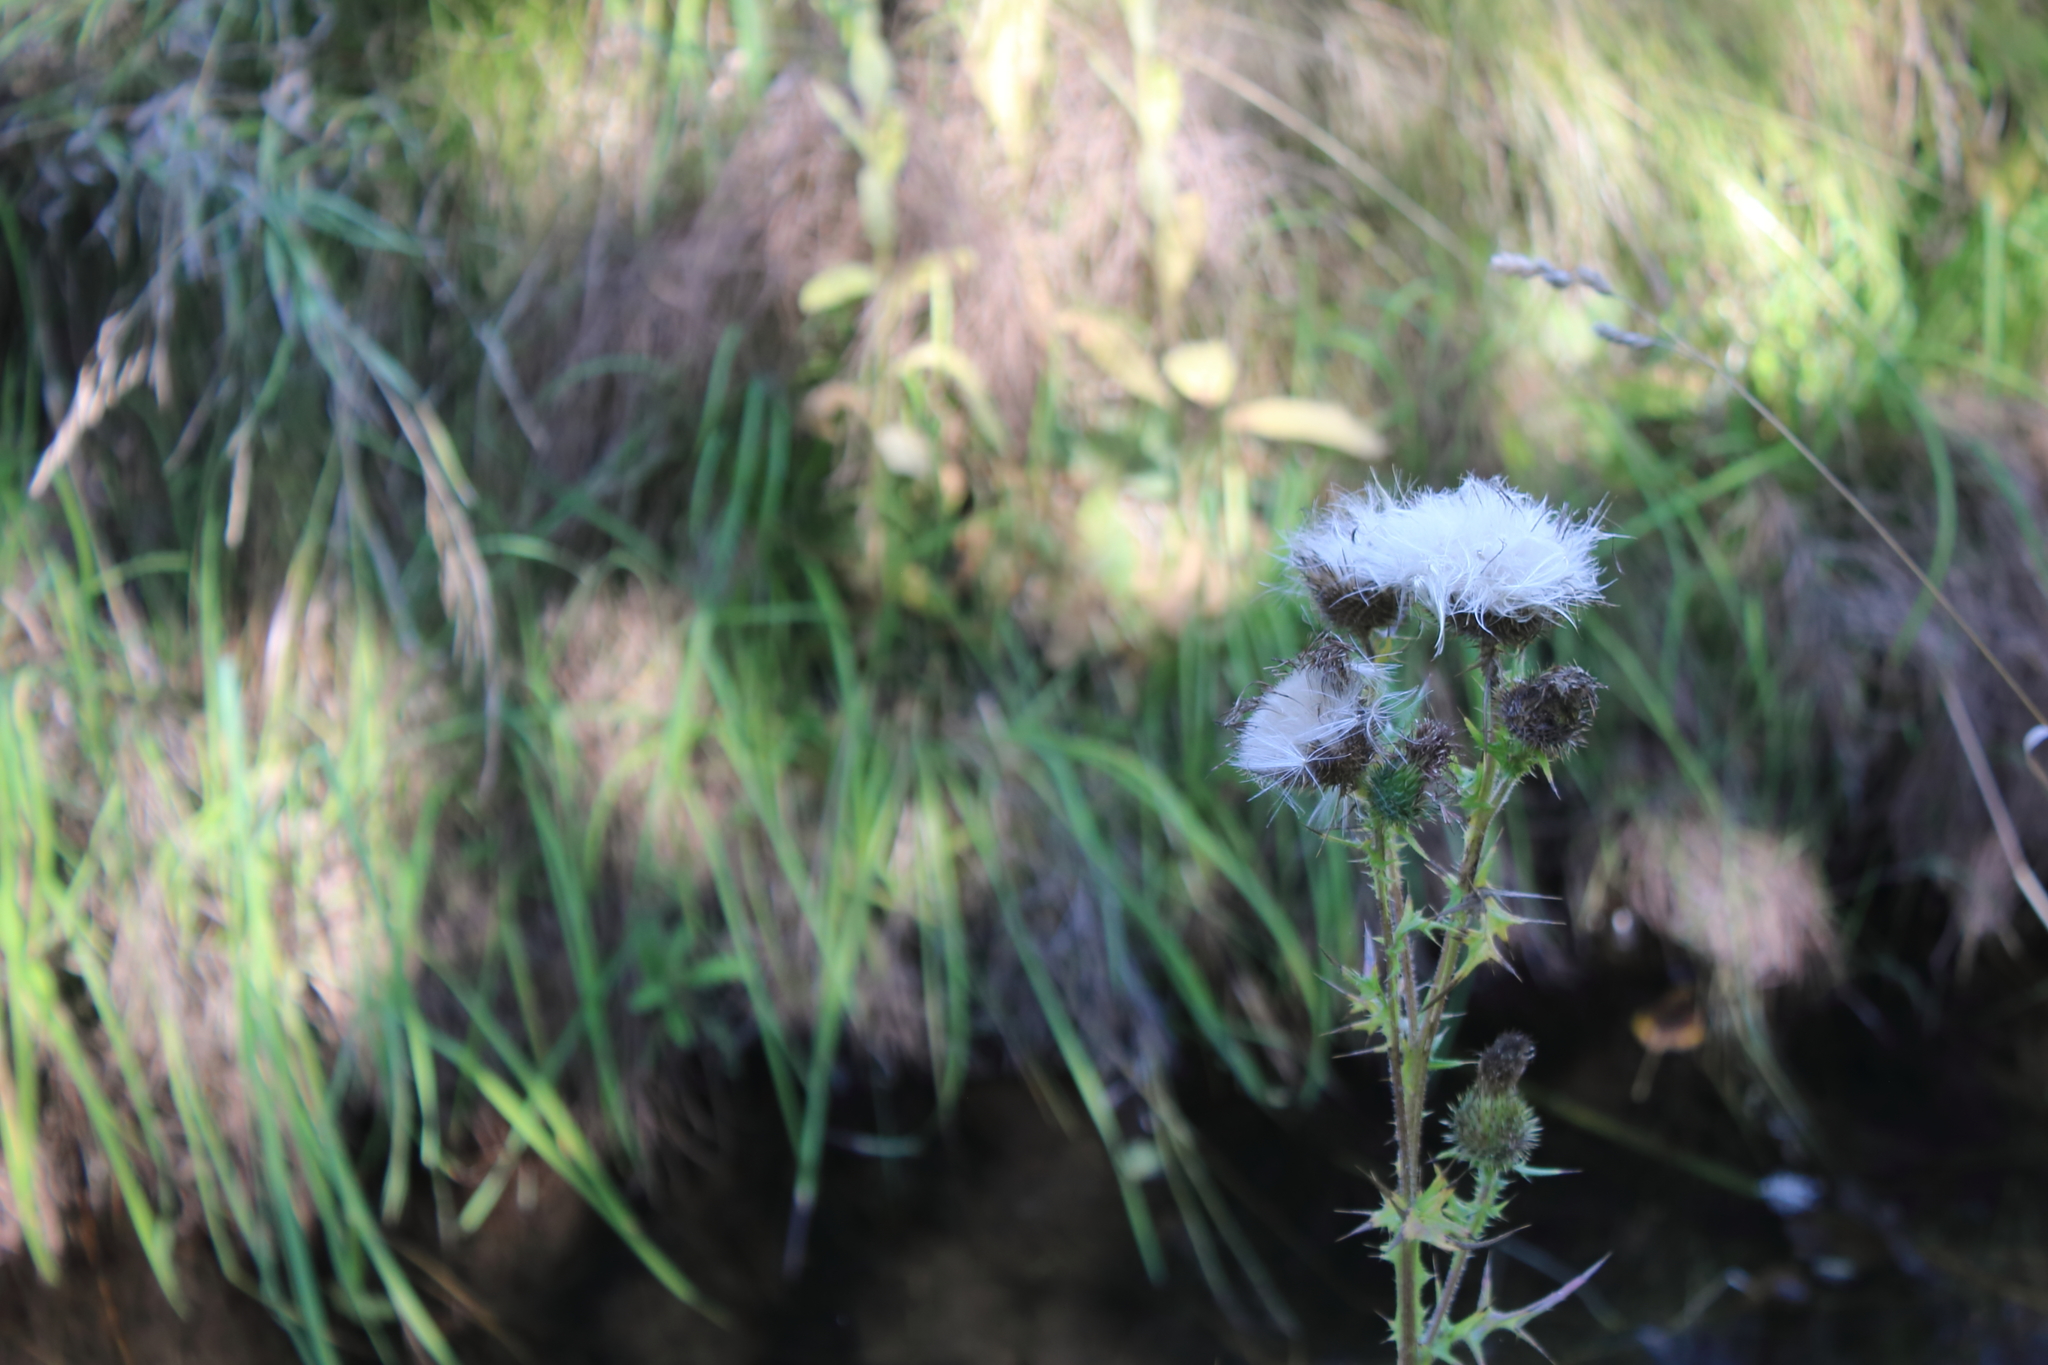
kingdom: Plantae
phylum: Tracheophyta
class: Magnoliopsida
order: Asterales
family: Asteraceae
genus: Cirsium
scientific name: Cirsium vulgare
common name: Bull thistle
